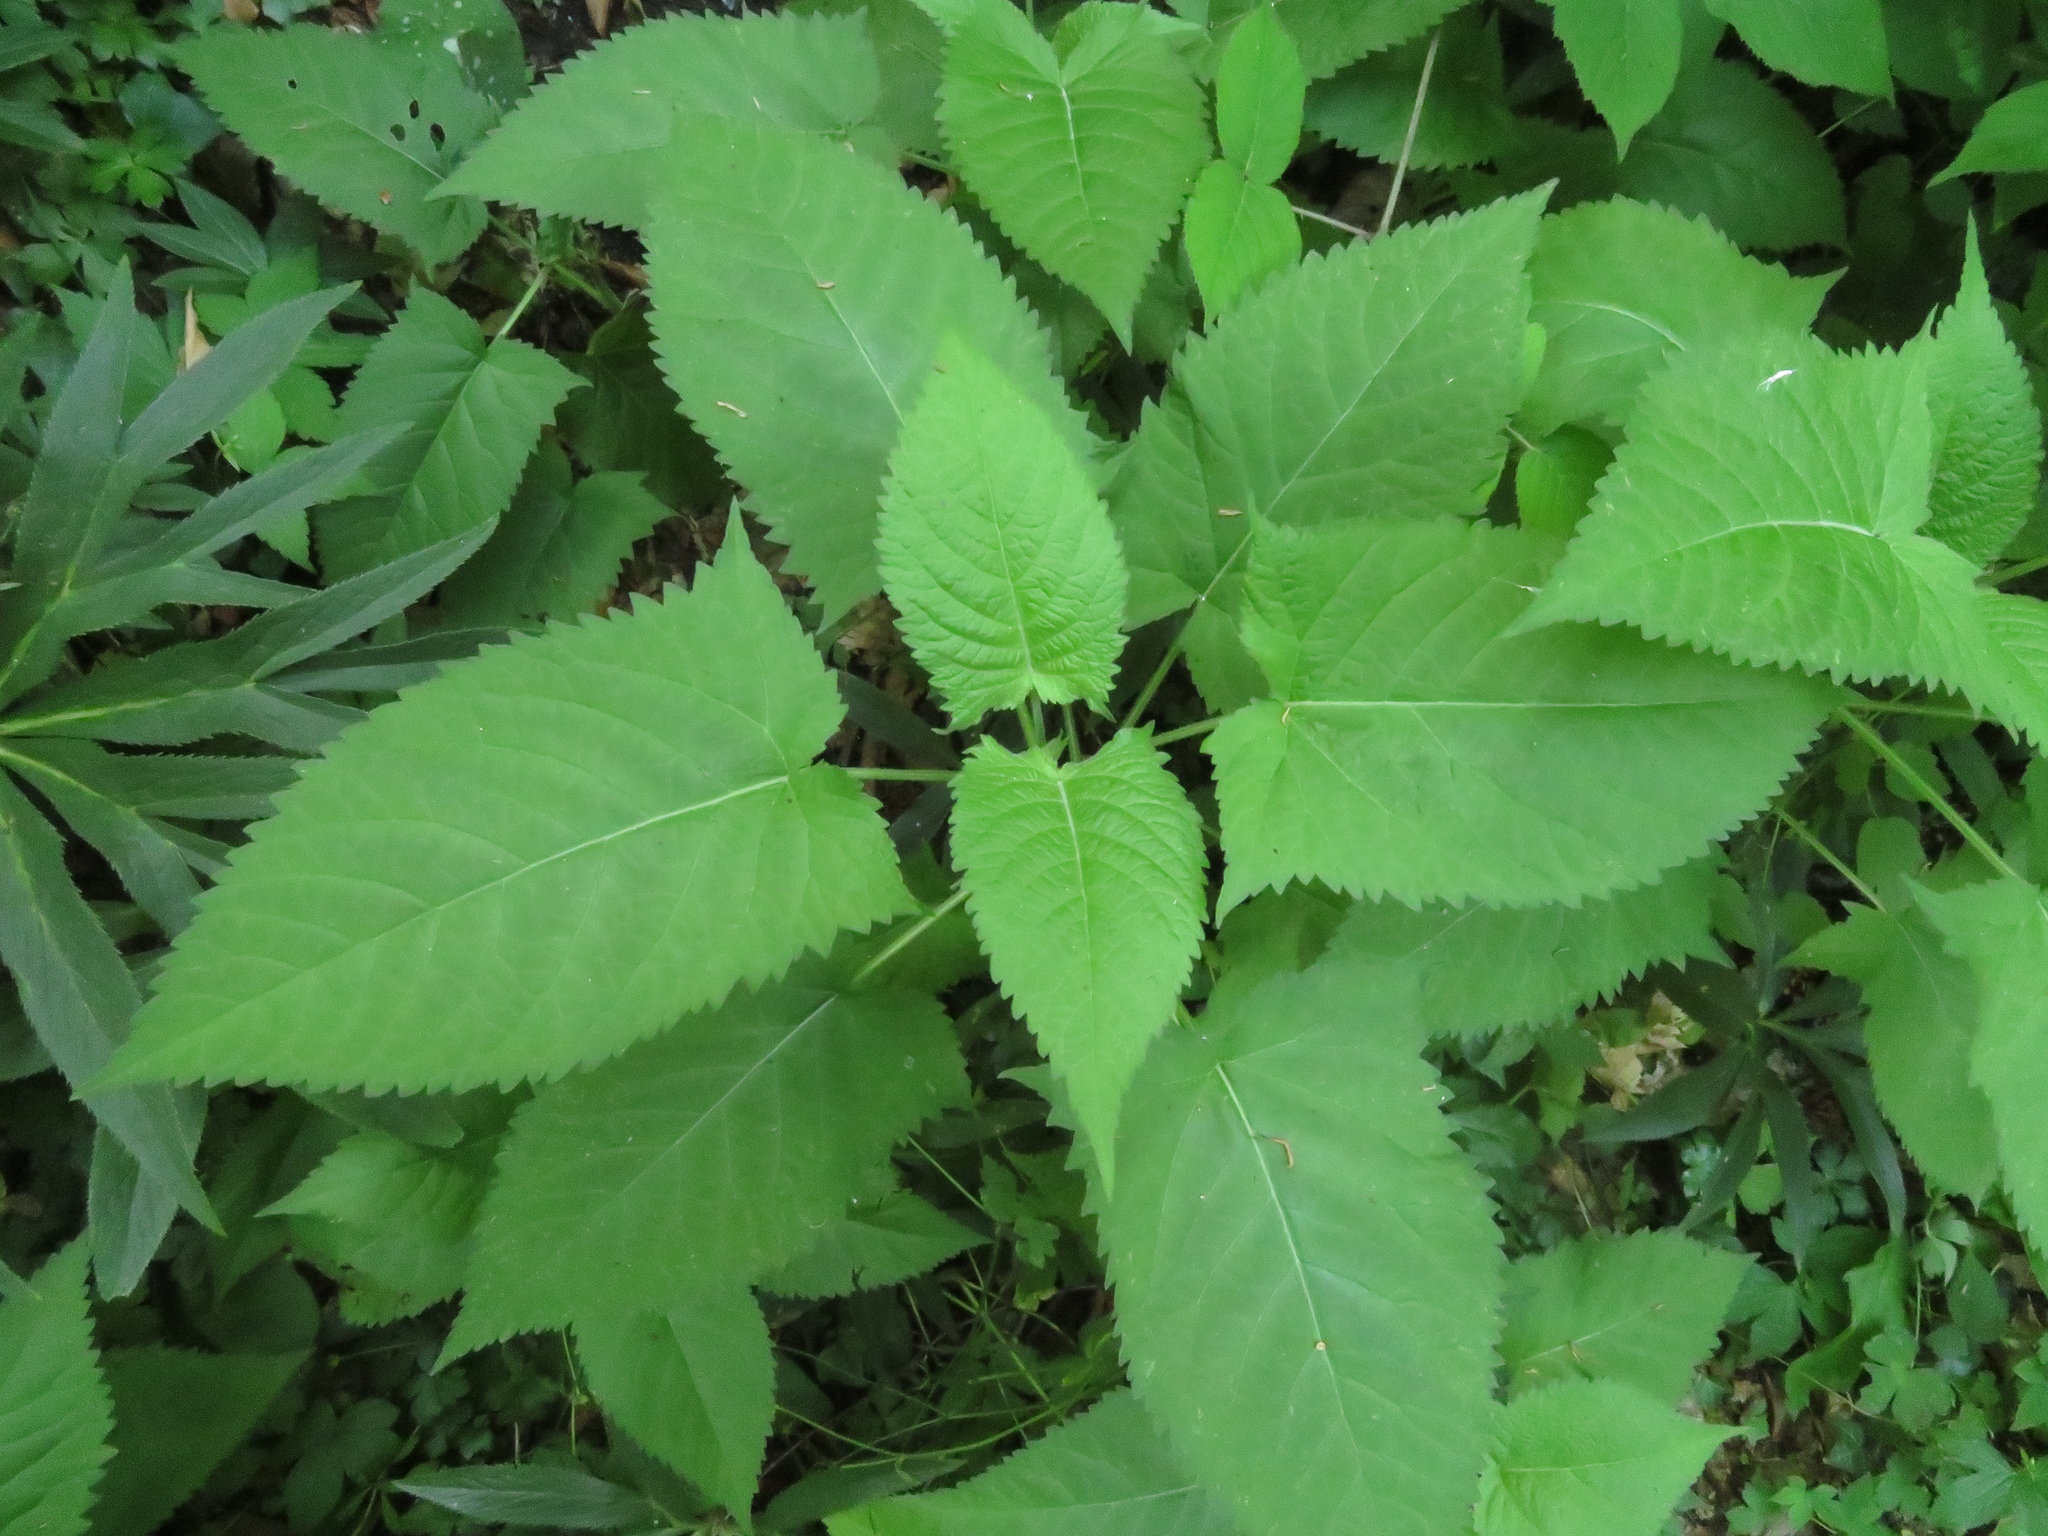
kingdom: Plantae
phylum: Tracheophyta
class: Magnoliopsida
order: Lamiales
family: Lamiaceae
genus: Salvia
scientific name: Salvia glutinosa
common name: Sticky clary
